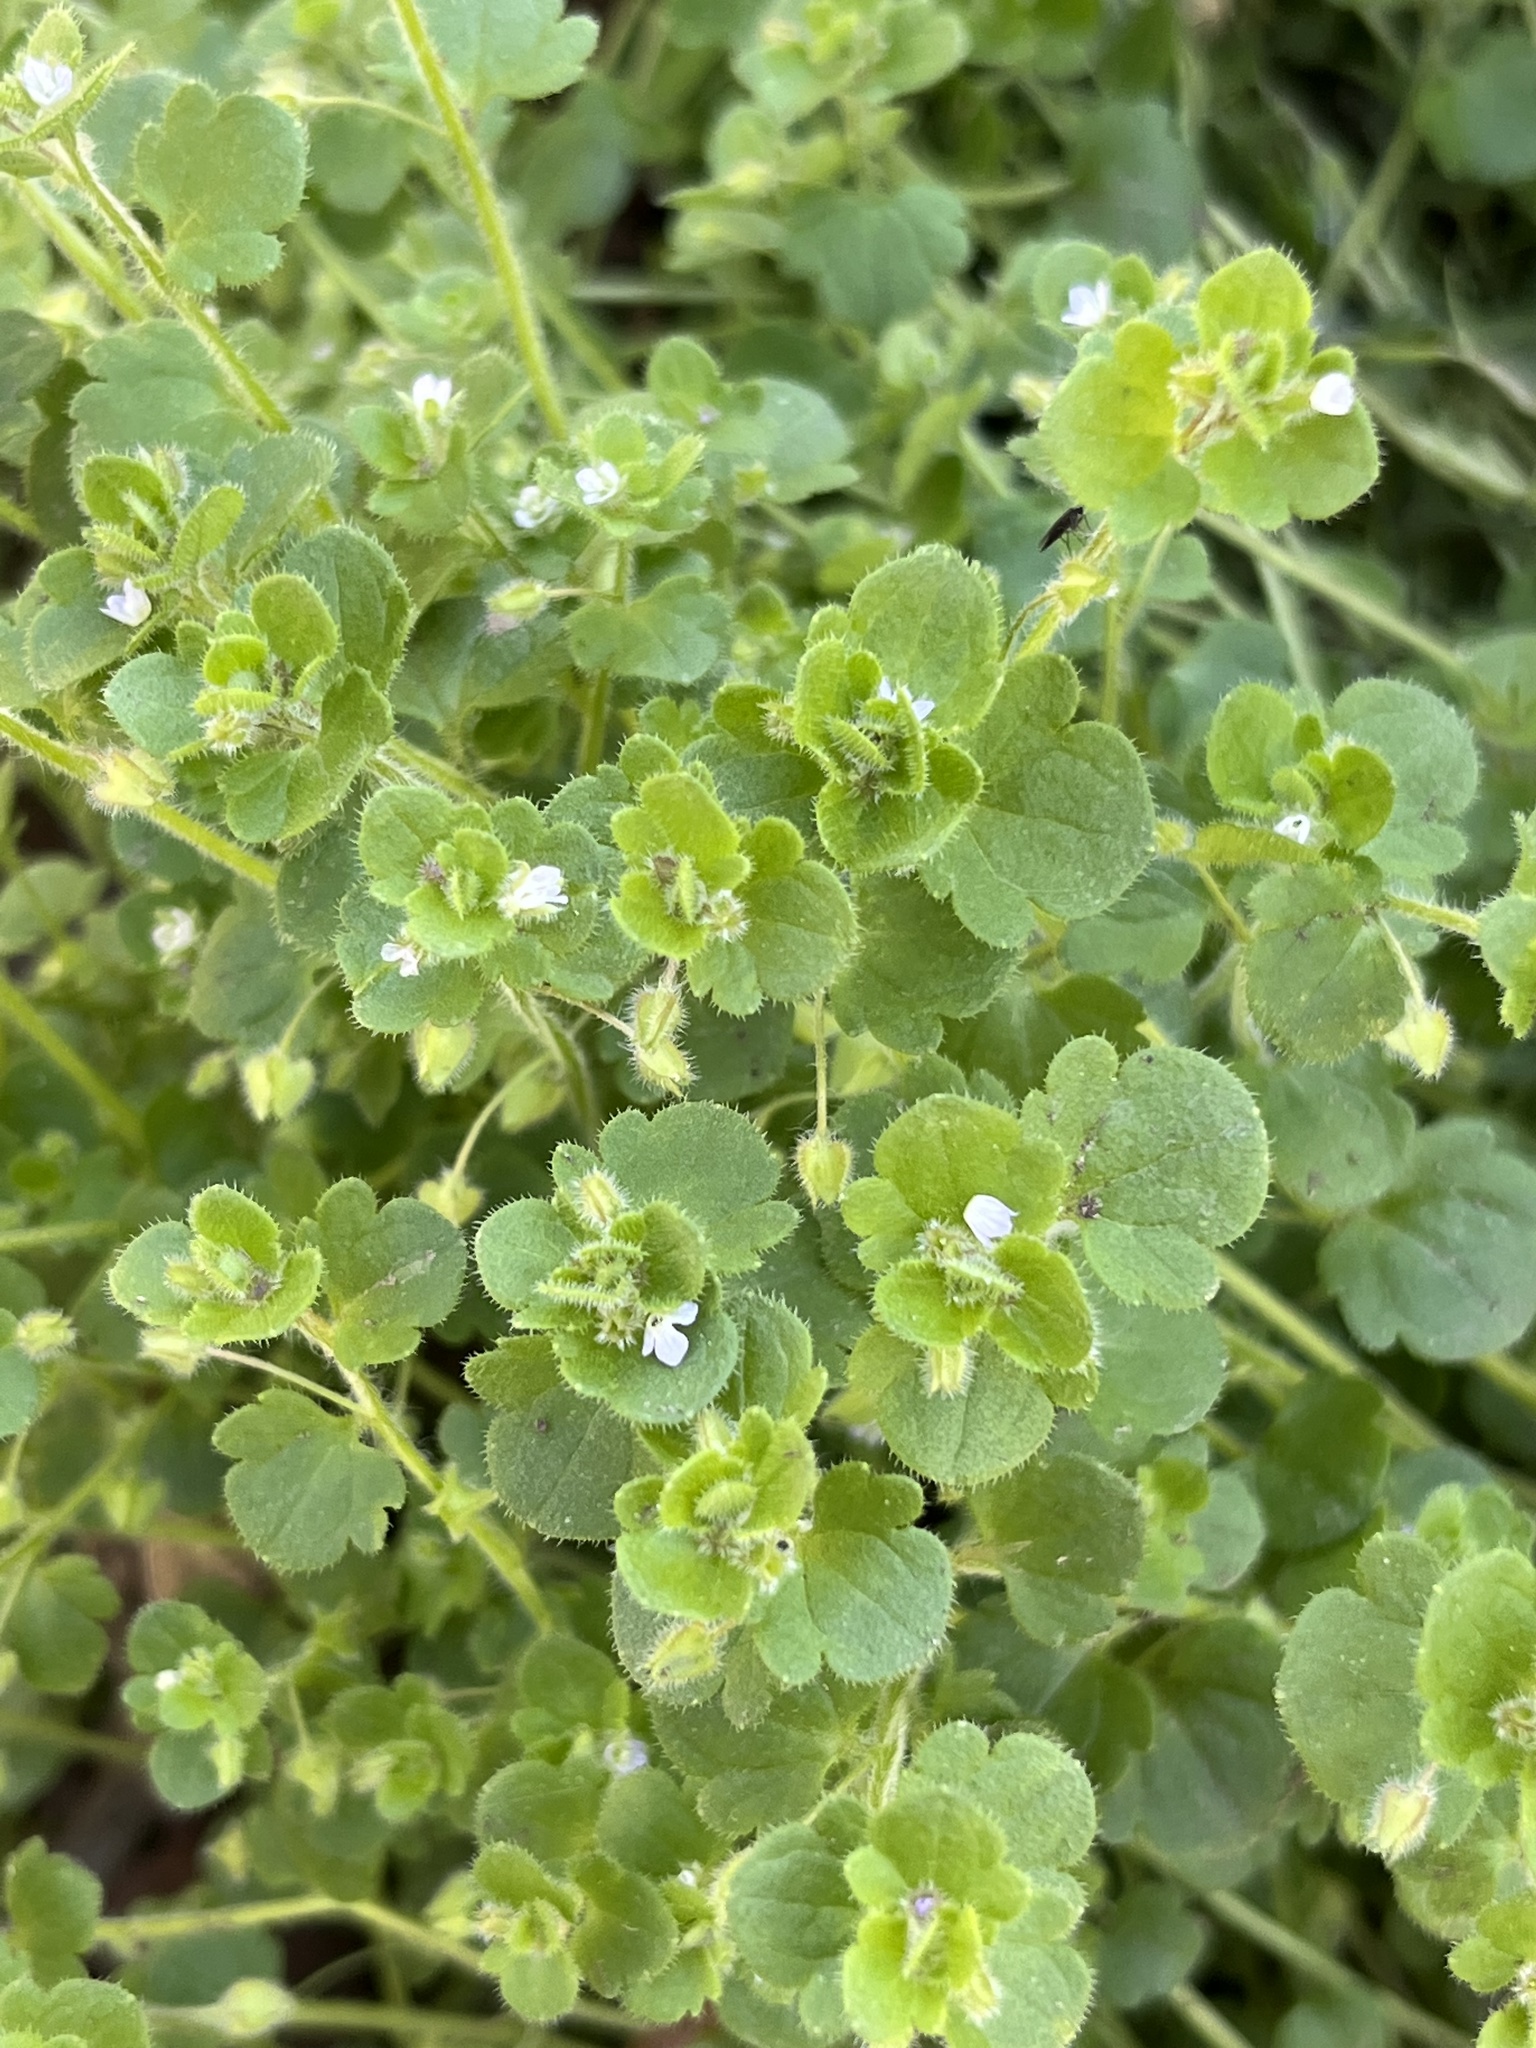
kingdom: Plantae
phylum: Tracheophyta
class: Magnoliopsida
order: Lamiales
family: Plantaginaceae
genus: Veronica
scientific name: Veronica sublobata
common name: False ivy-leaved speedwell
